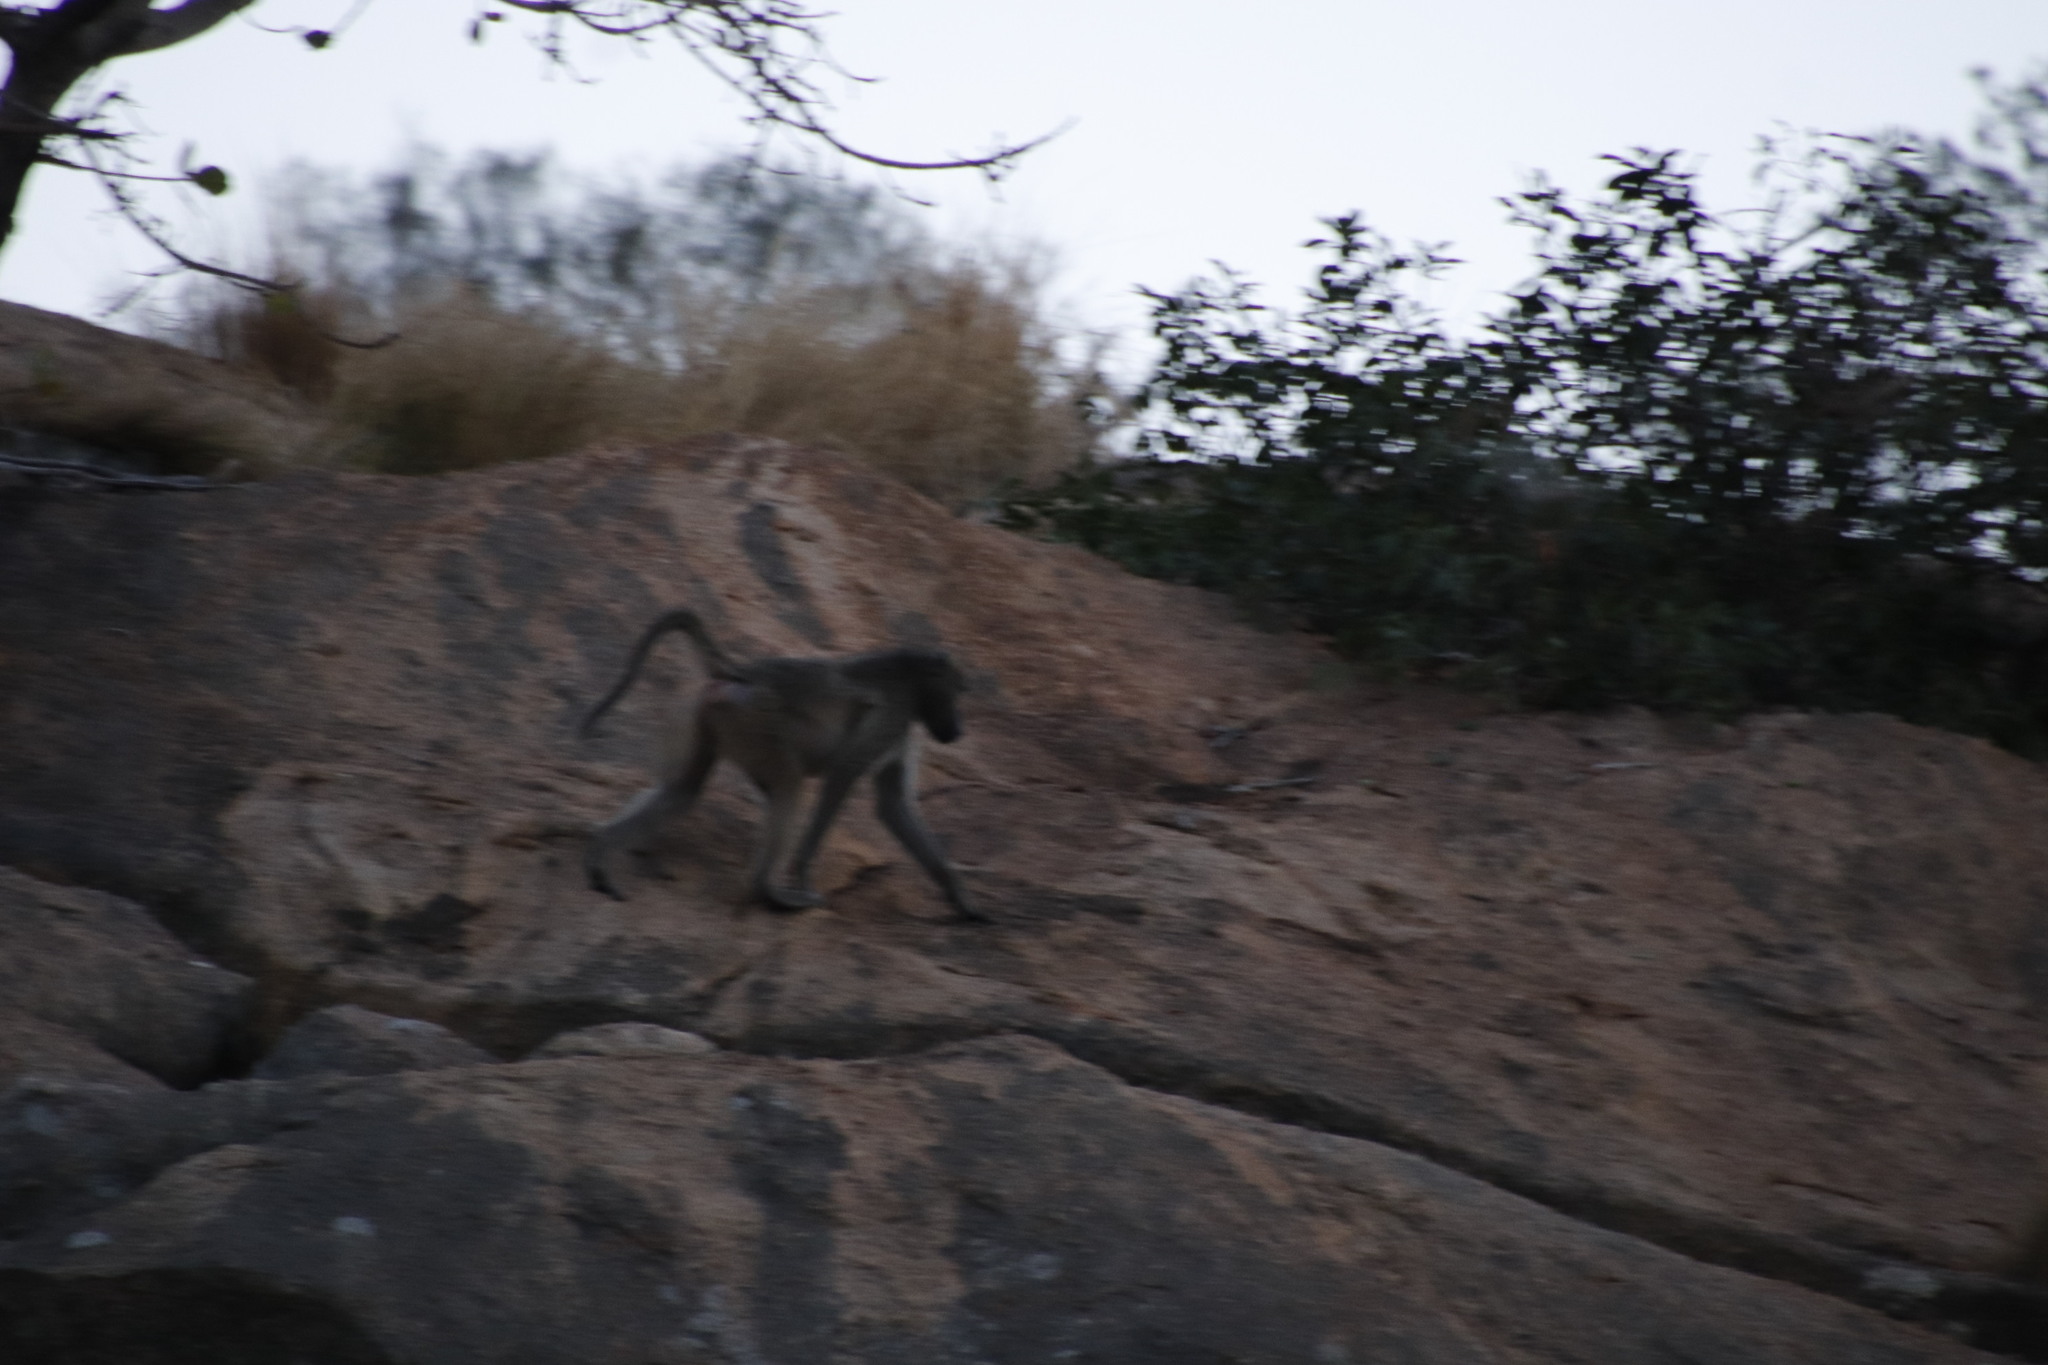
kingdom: Animalia
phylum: Chordata
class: Mammalia
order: Primates
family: Cercopithecidae
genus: Papio
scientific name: Papio ursinus
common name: Chacma baboon
